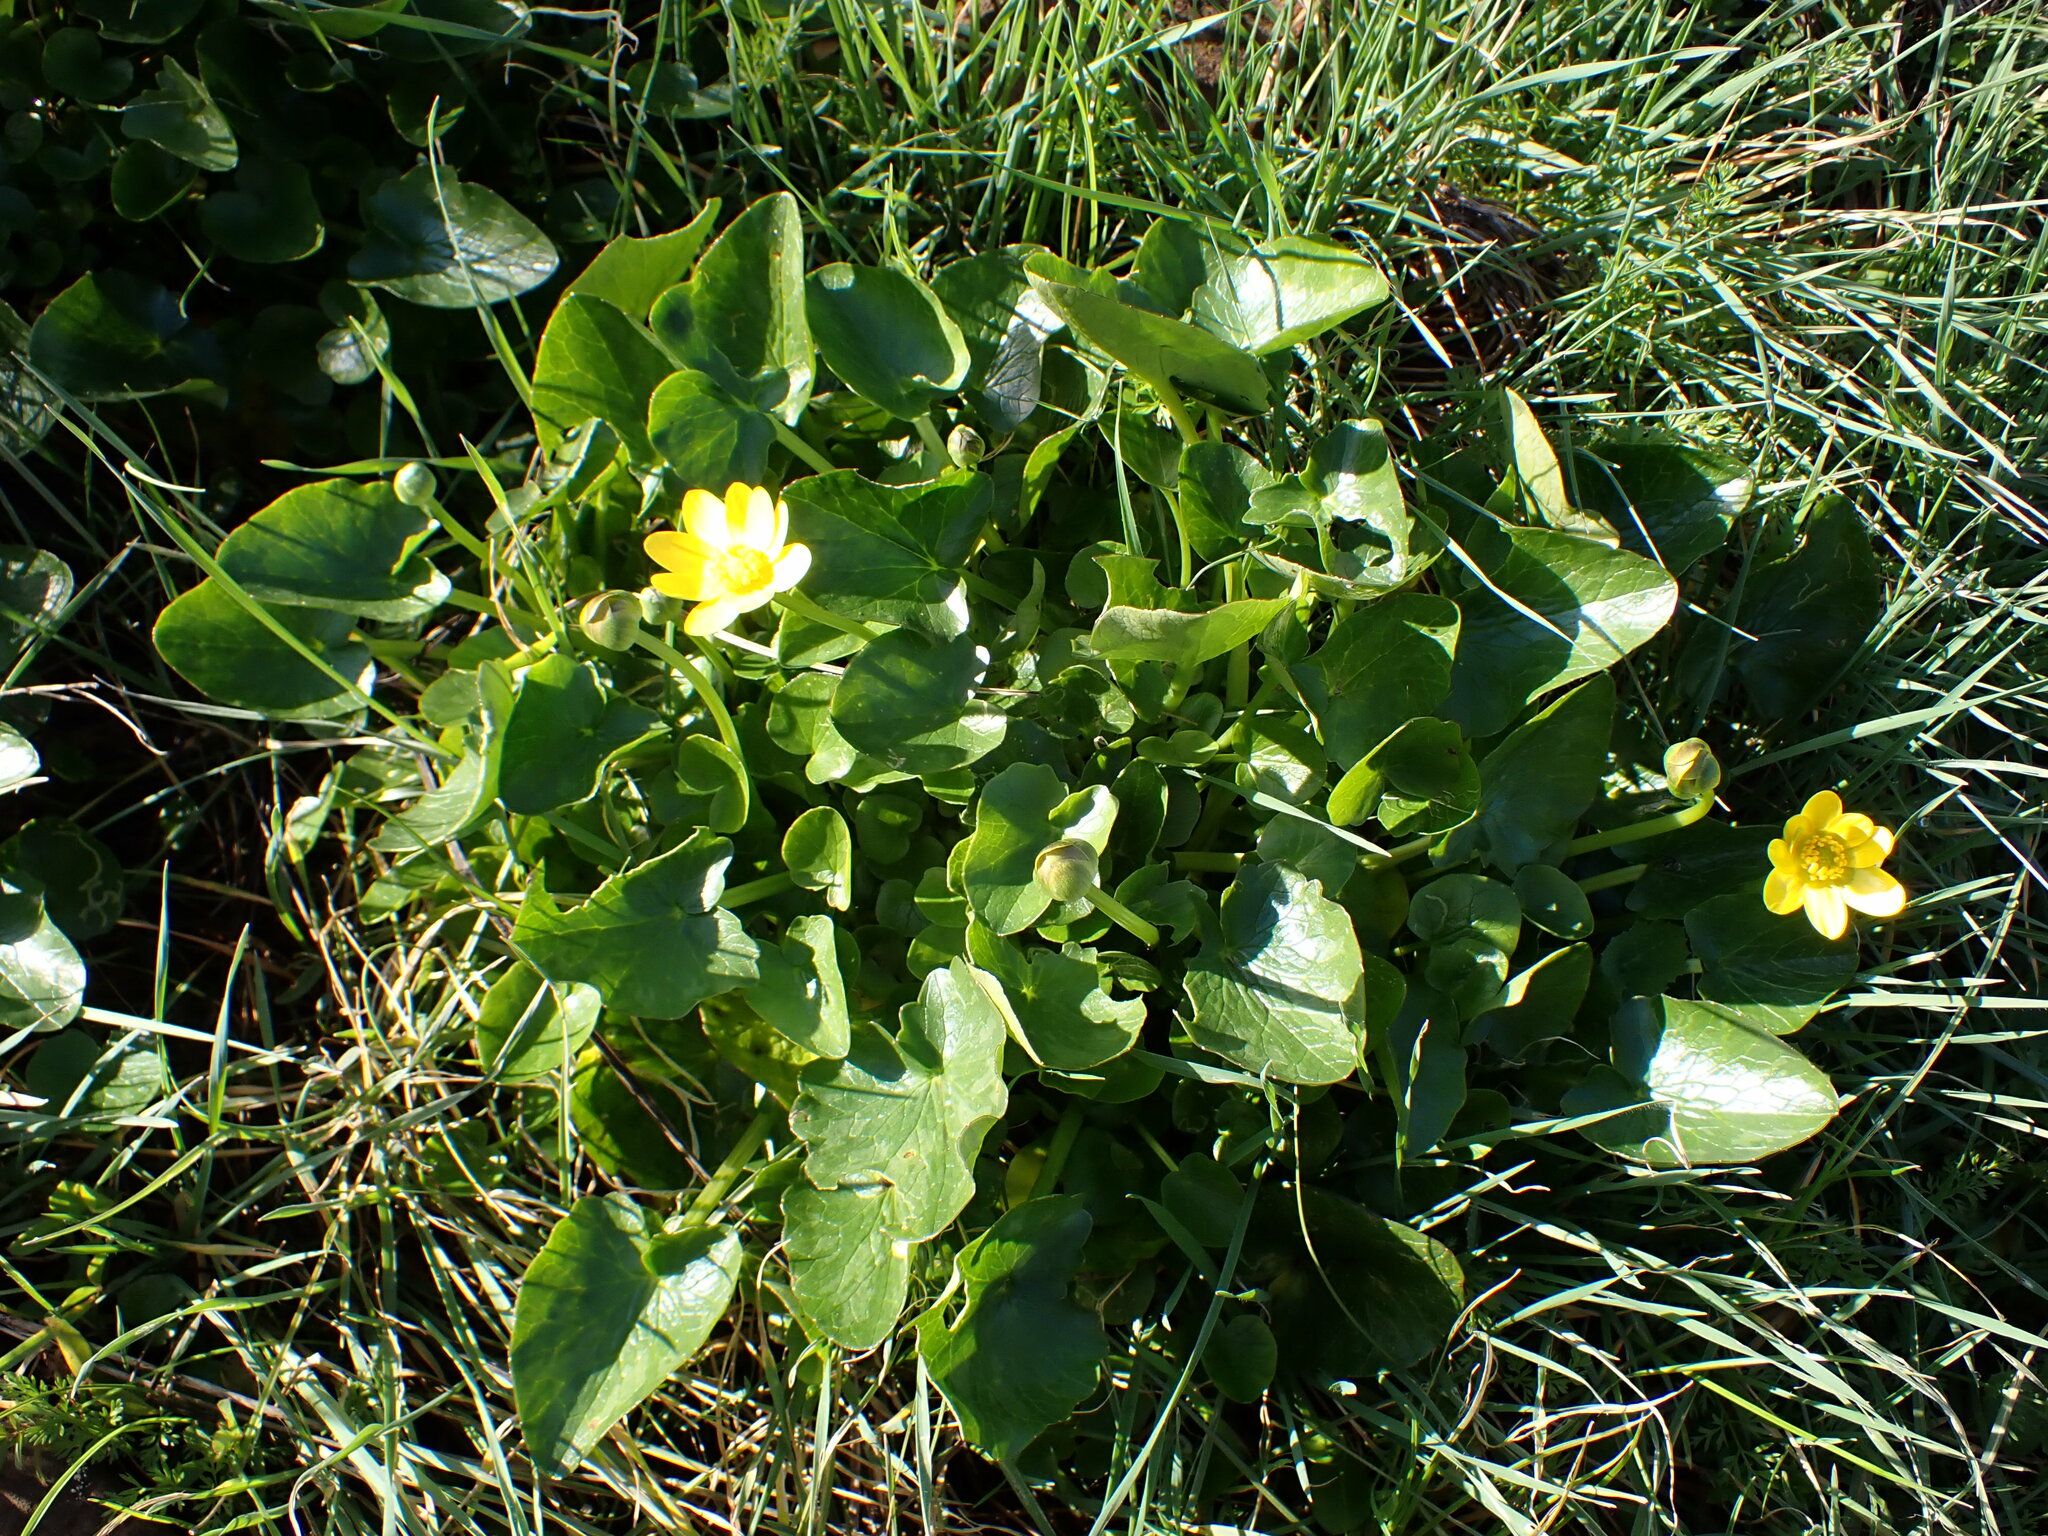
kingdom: Plantae
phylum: Tracheophyta
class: Magnoliopsida
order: Ranunculales
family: Ranunculaceae
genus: Ficaria
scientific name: Ficaria verna
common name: Lesser celandine
